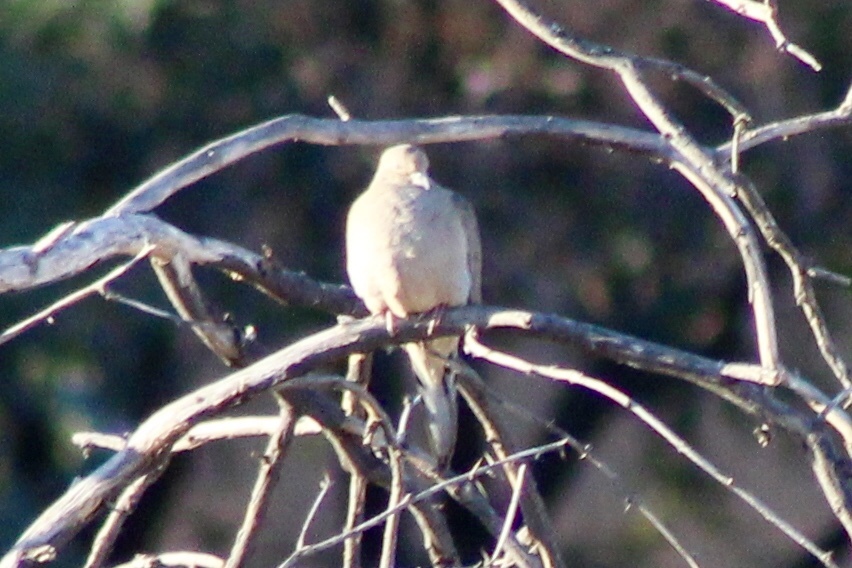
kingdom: Animalia
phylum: Chordata
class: Aves
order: Columbiformes
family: Columbidae
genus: Zenaida
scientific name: Zenaida macroura
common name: Mourning dove
